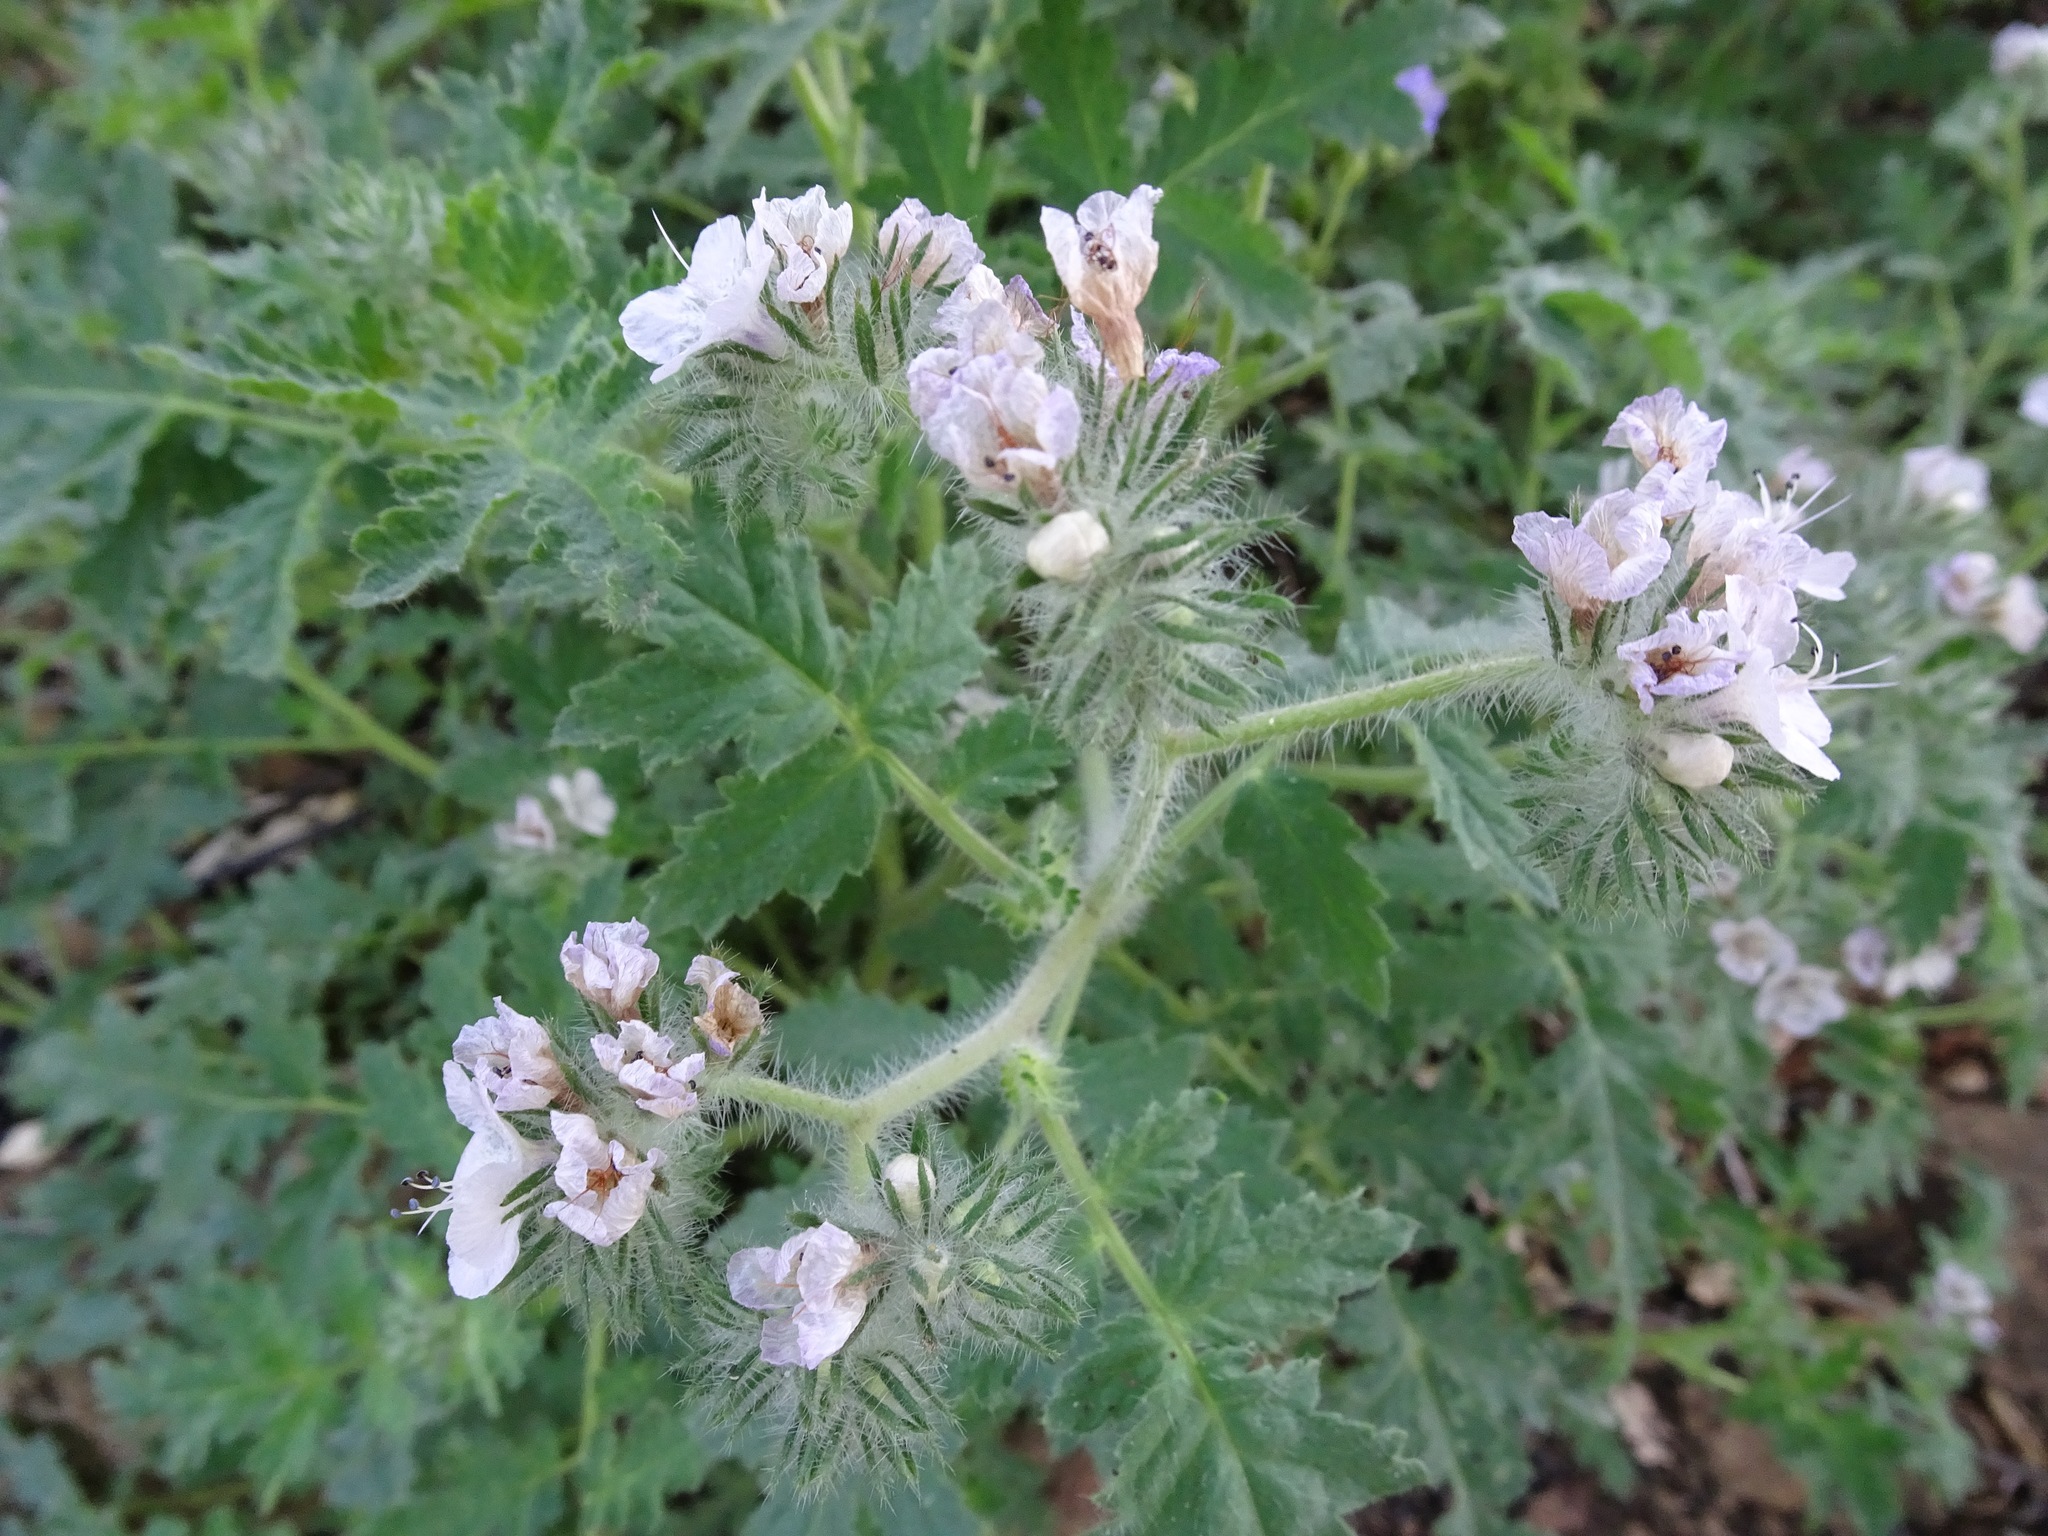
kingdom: Plantae
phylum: Tracheophyta
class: Magnoliopsida
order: Boraginales
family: Hydrophyllaceae
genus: Phacelia
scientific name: Phacelia cicutaria
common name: Caterpillar phacelia
